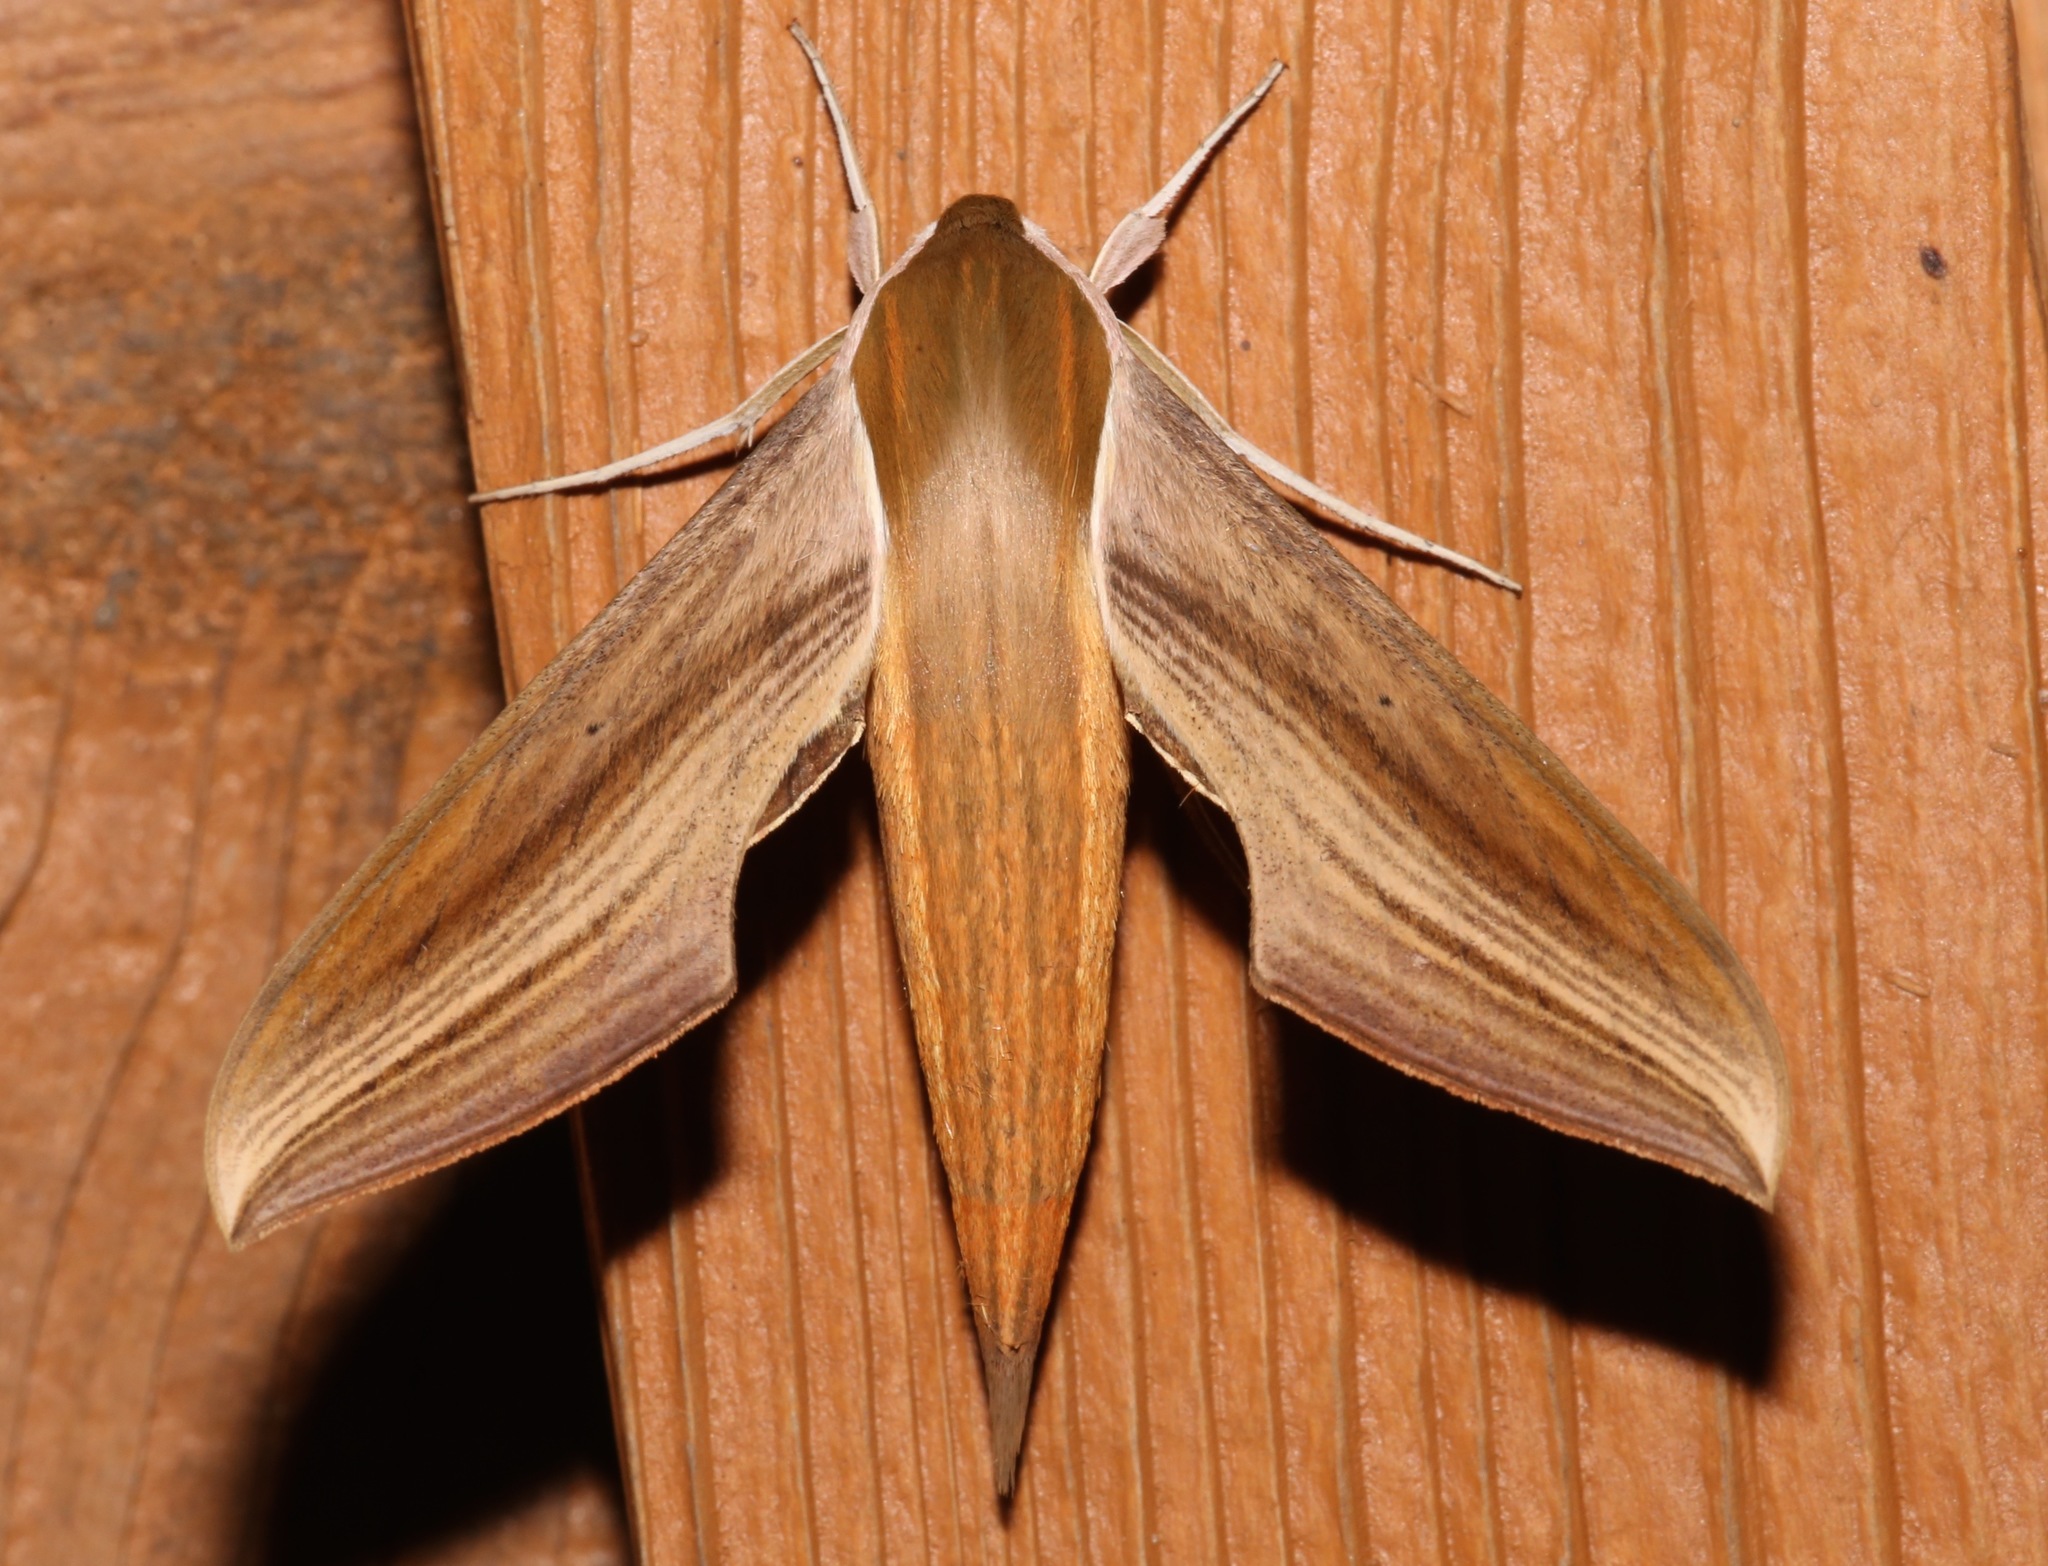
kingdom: Animalia
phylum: Arthropoda
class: Insecta
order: Lepidoptera
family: Sphingidae
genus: Xylophanes
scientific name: Xylophanes tersa
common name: Tersa sphinx
